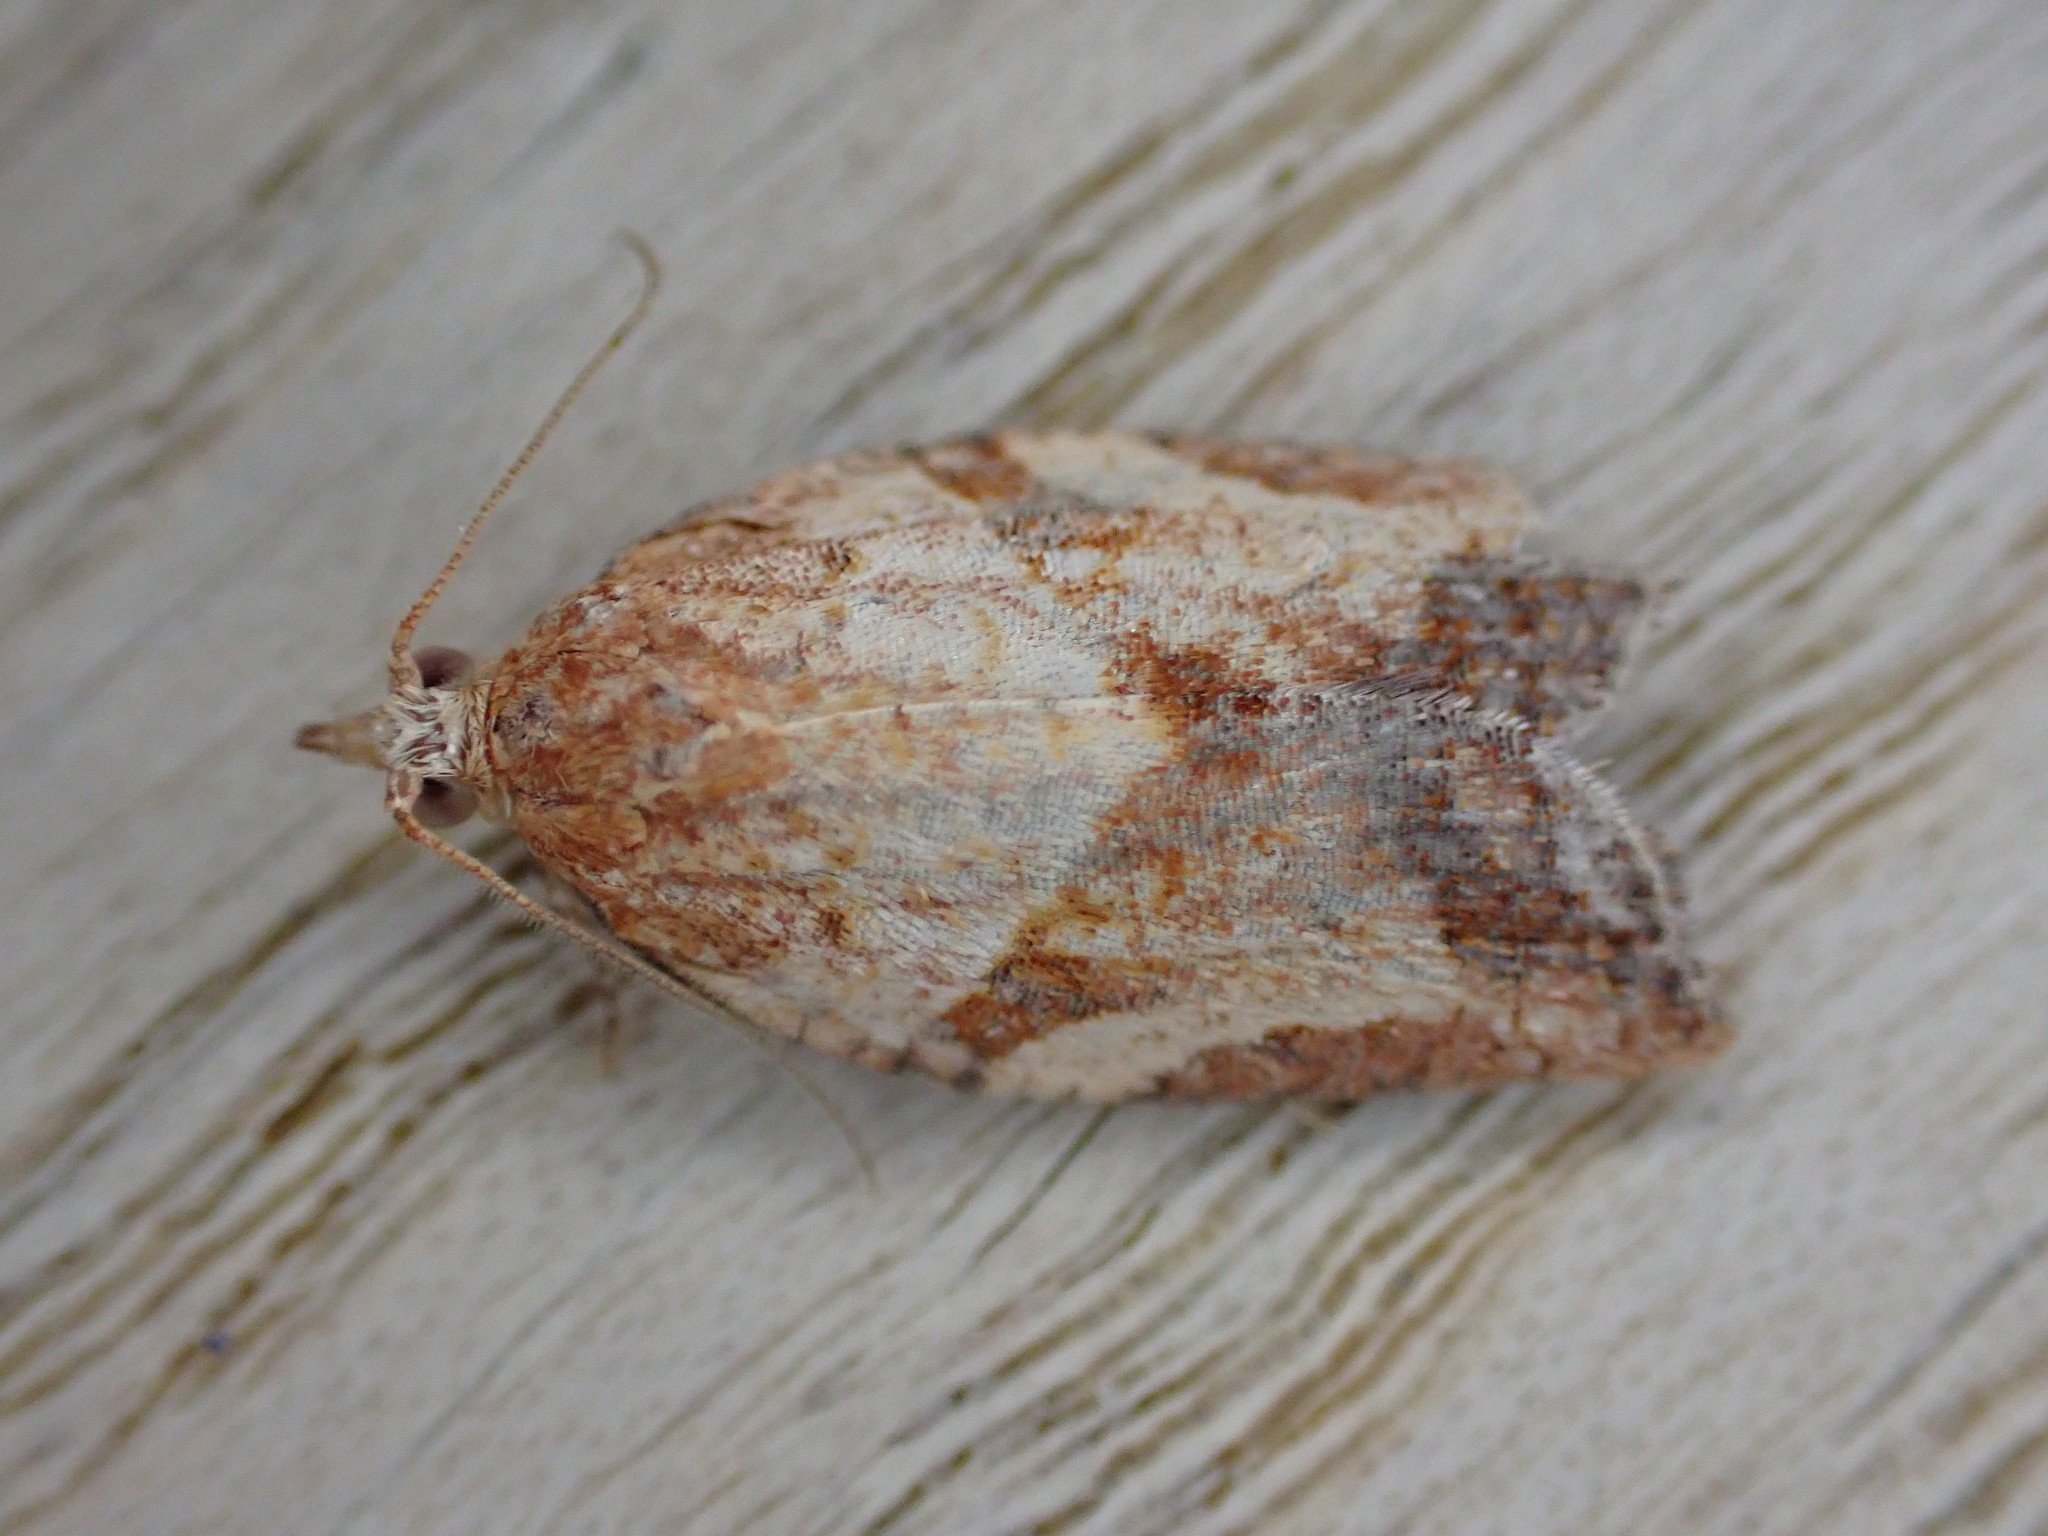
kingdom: Animalia
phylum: Arthropoda
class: Insecta
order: Lepidoptera
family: Tortricidae
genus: Epiphyas
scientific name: Epiphyas postvittana
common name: Light brown apple moth
